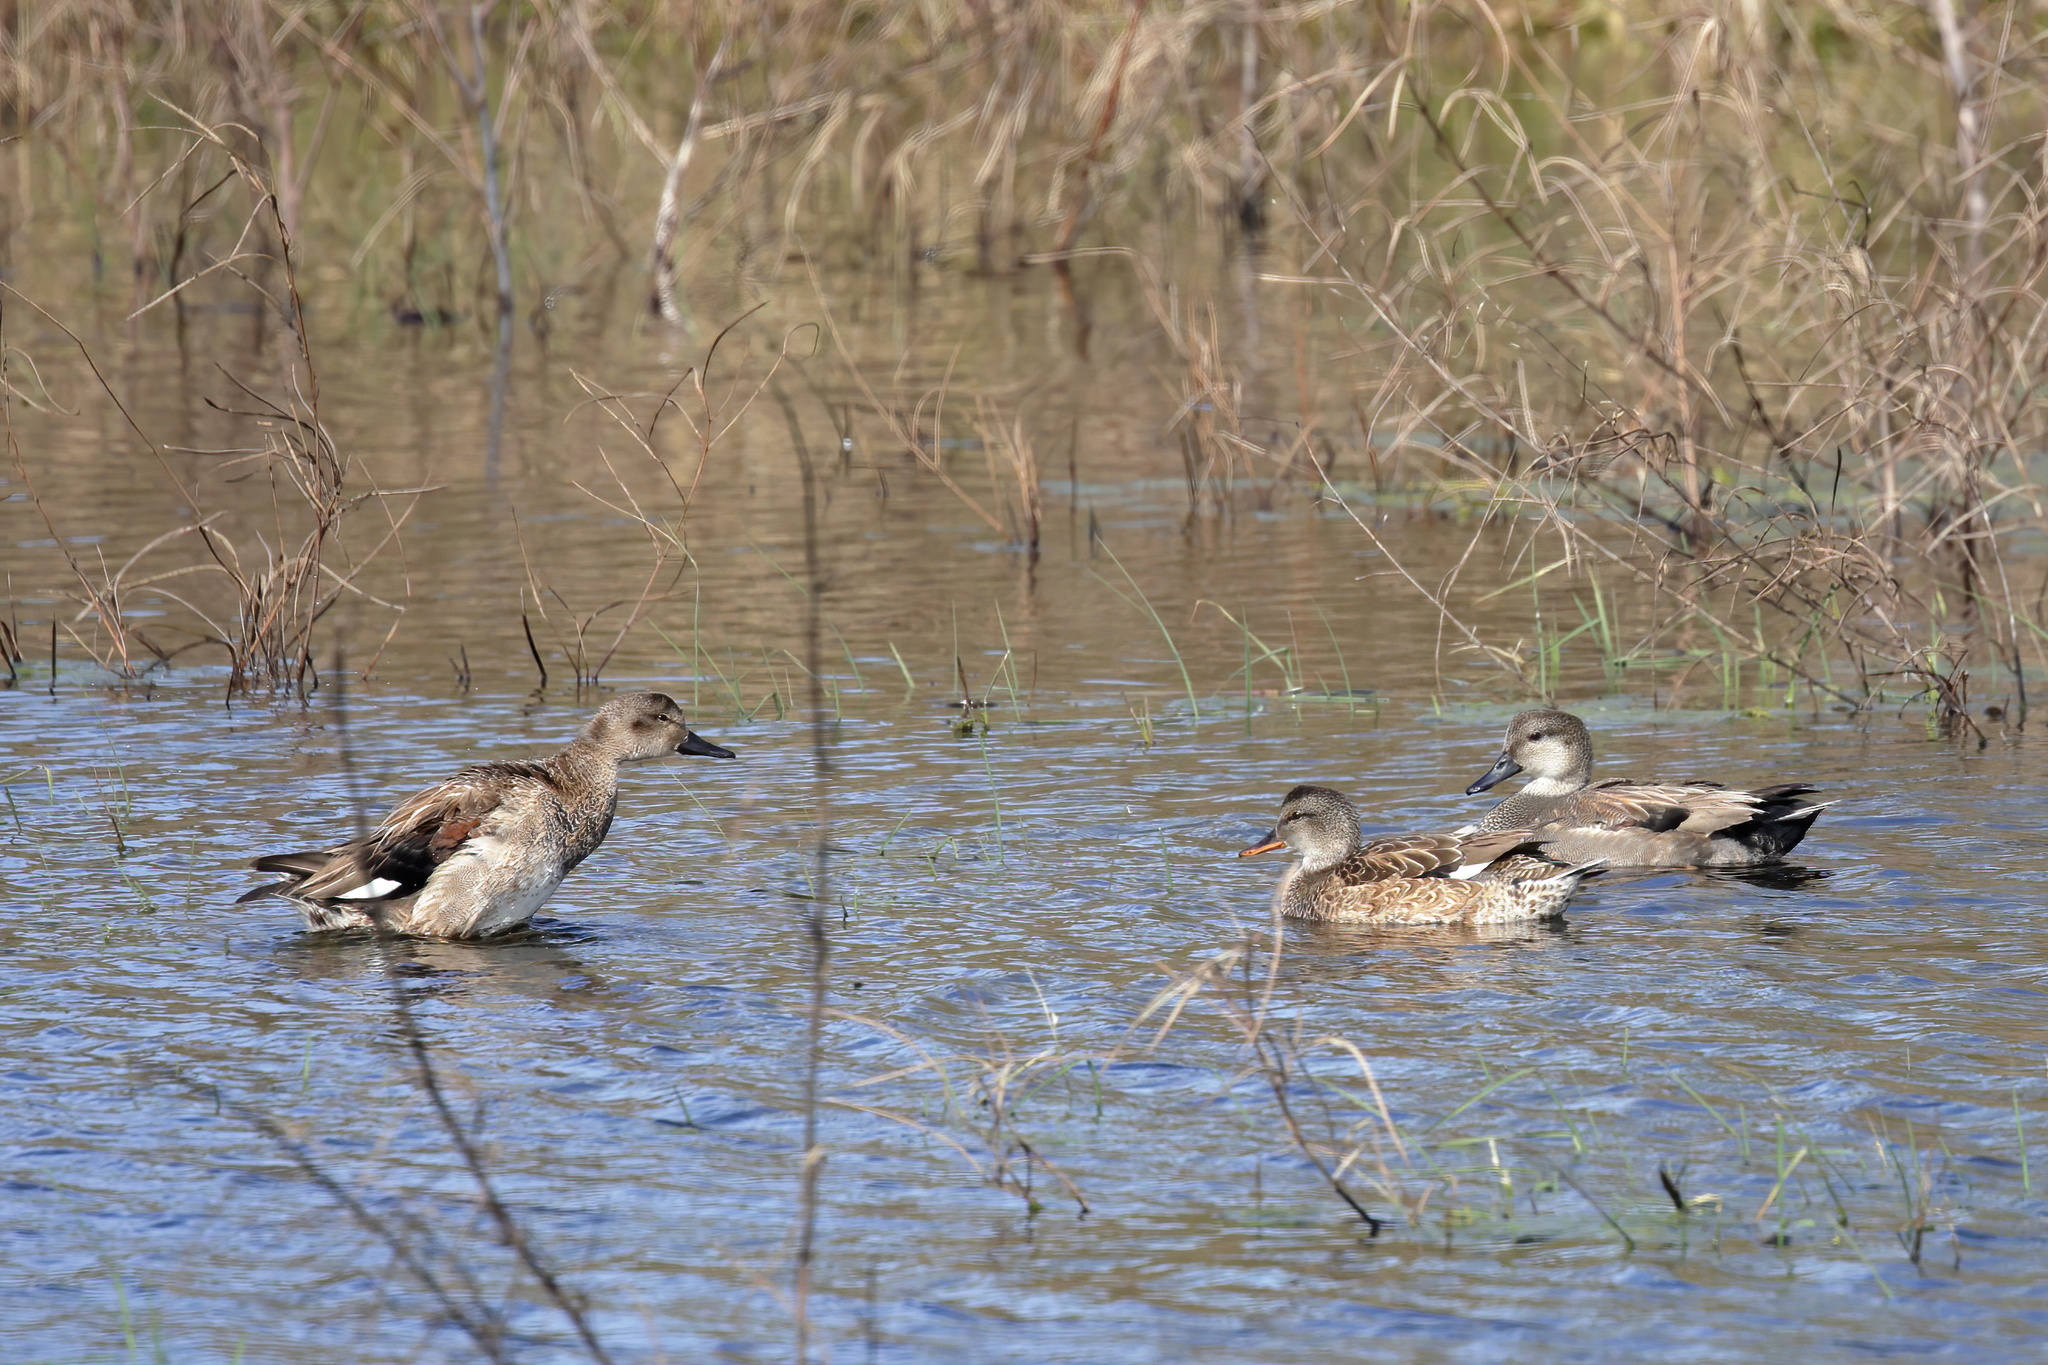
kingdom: Animalia
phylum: Chordata
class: Aves
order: Anseriformes
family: Anatidae
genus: Mareca
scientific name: Mareca strepera
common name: Gadwall
